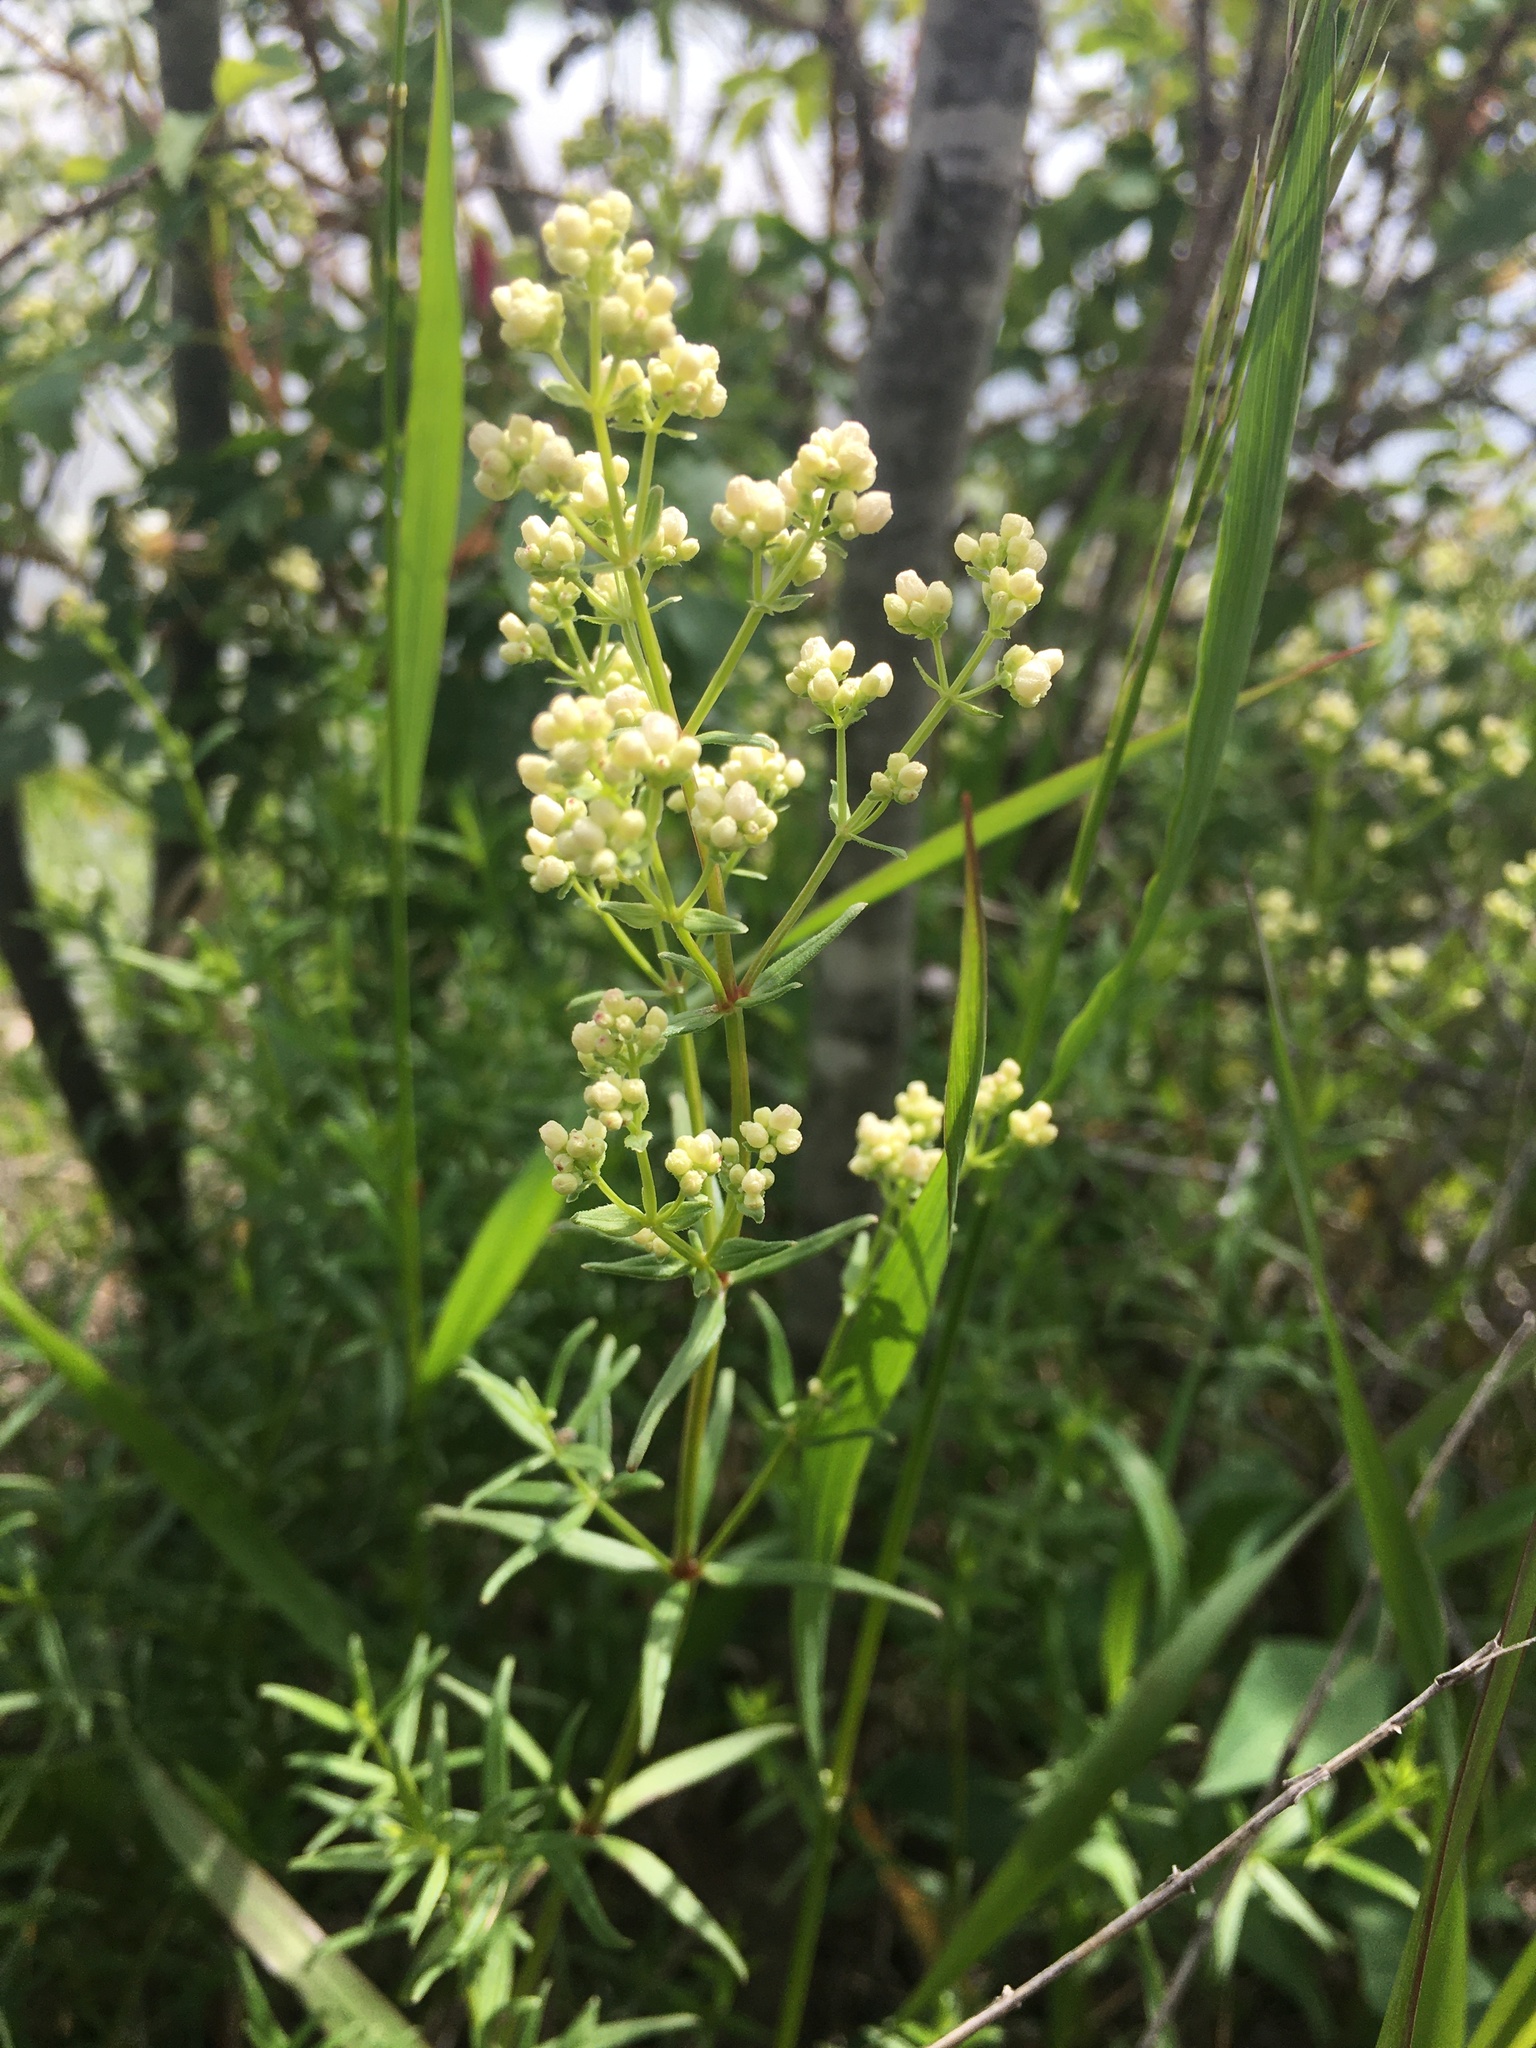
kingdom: Plantae
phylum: Tracheophyta
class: Magnoliopsida
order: Gentianales
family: Rubiaceae
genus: Galium
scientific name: Galium boreale
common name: Northern bedstraw
